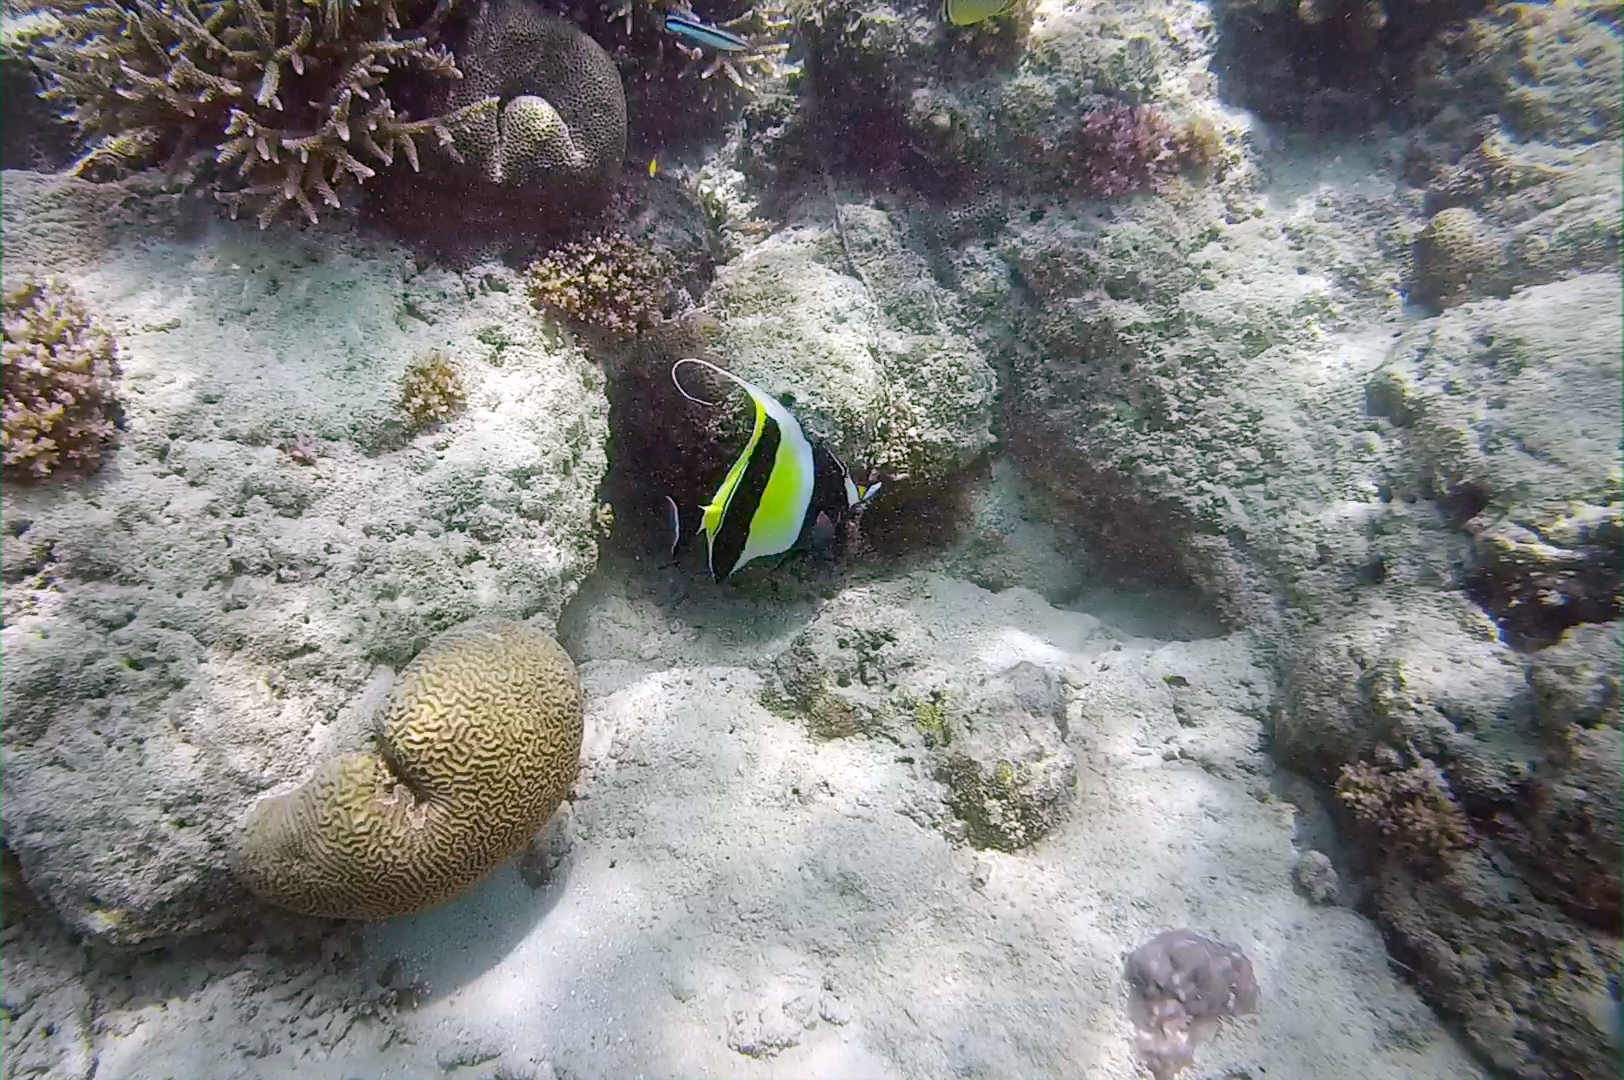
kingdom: Animalia
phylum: Chordata
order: Perciformes
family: Zanclidae
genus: Zanclus
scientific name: Zanclus cornutus
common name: Moorish idol
